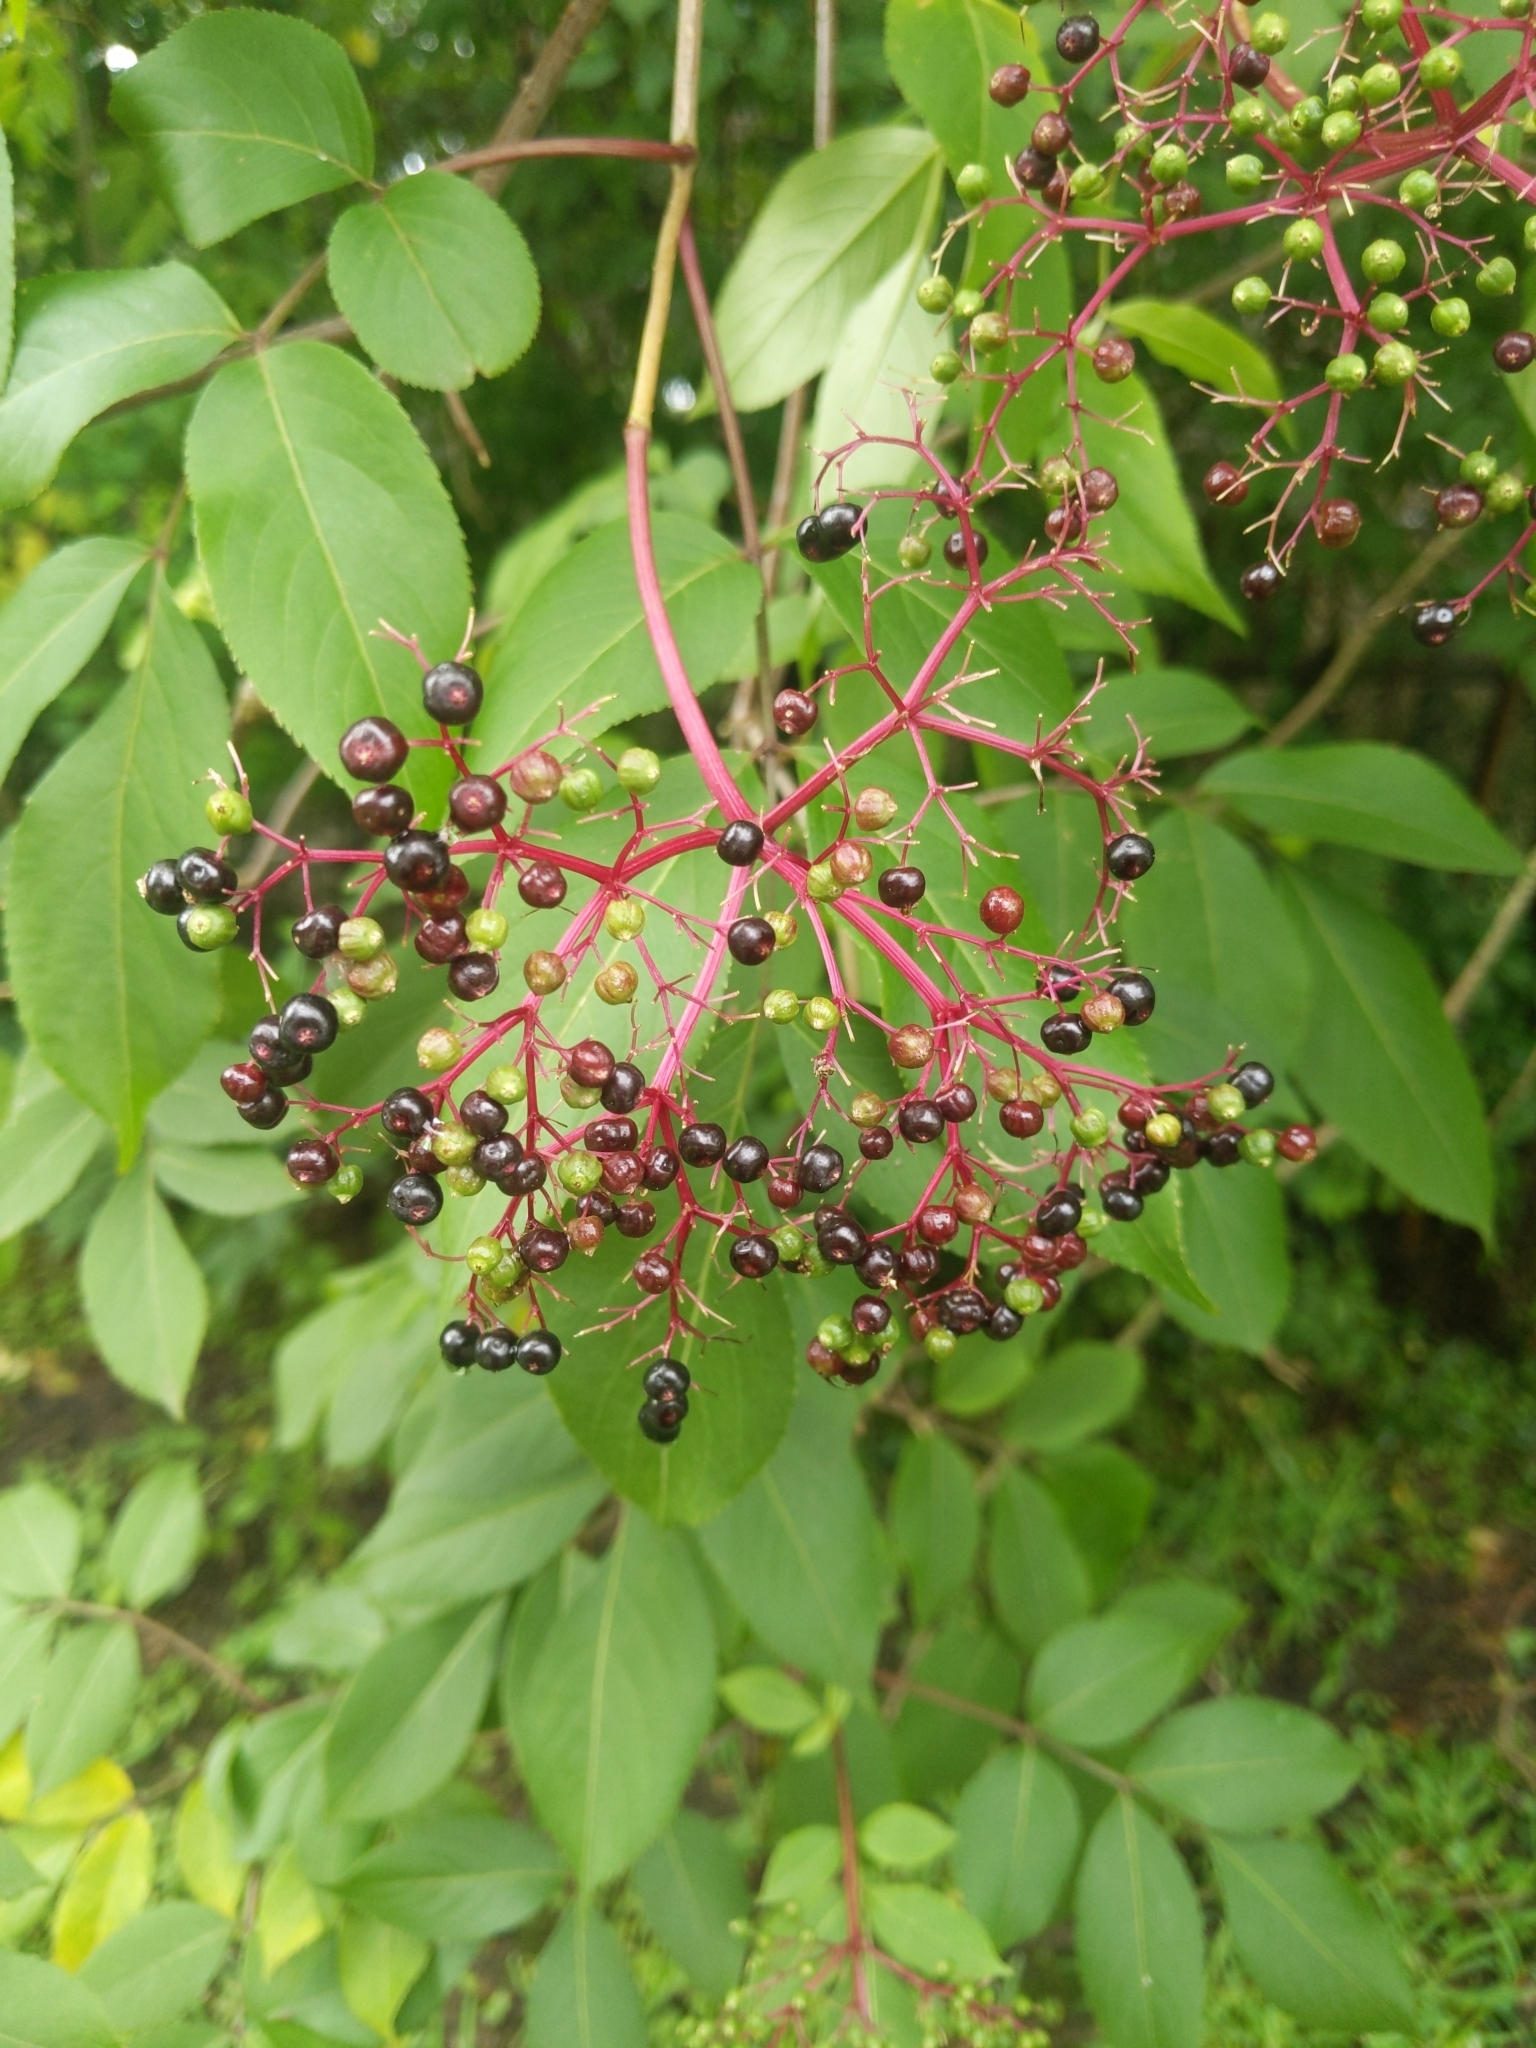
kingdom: Plantae
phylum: Tracheophyta
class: Magnoliopsida
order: Dipsacales
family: Viburnaceae
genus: Sambucus
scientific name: Sambucus canadensis
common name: American elder
